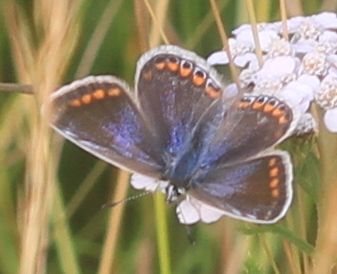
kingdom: Animalia
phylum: Arthropoda
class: Insecta
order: Lepidoptera
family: Lycaenidae
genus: Polyommatus
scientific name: Polyommatus icarus
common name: Common blue
